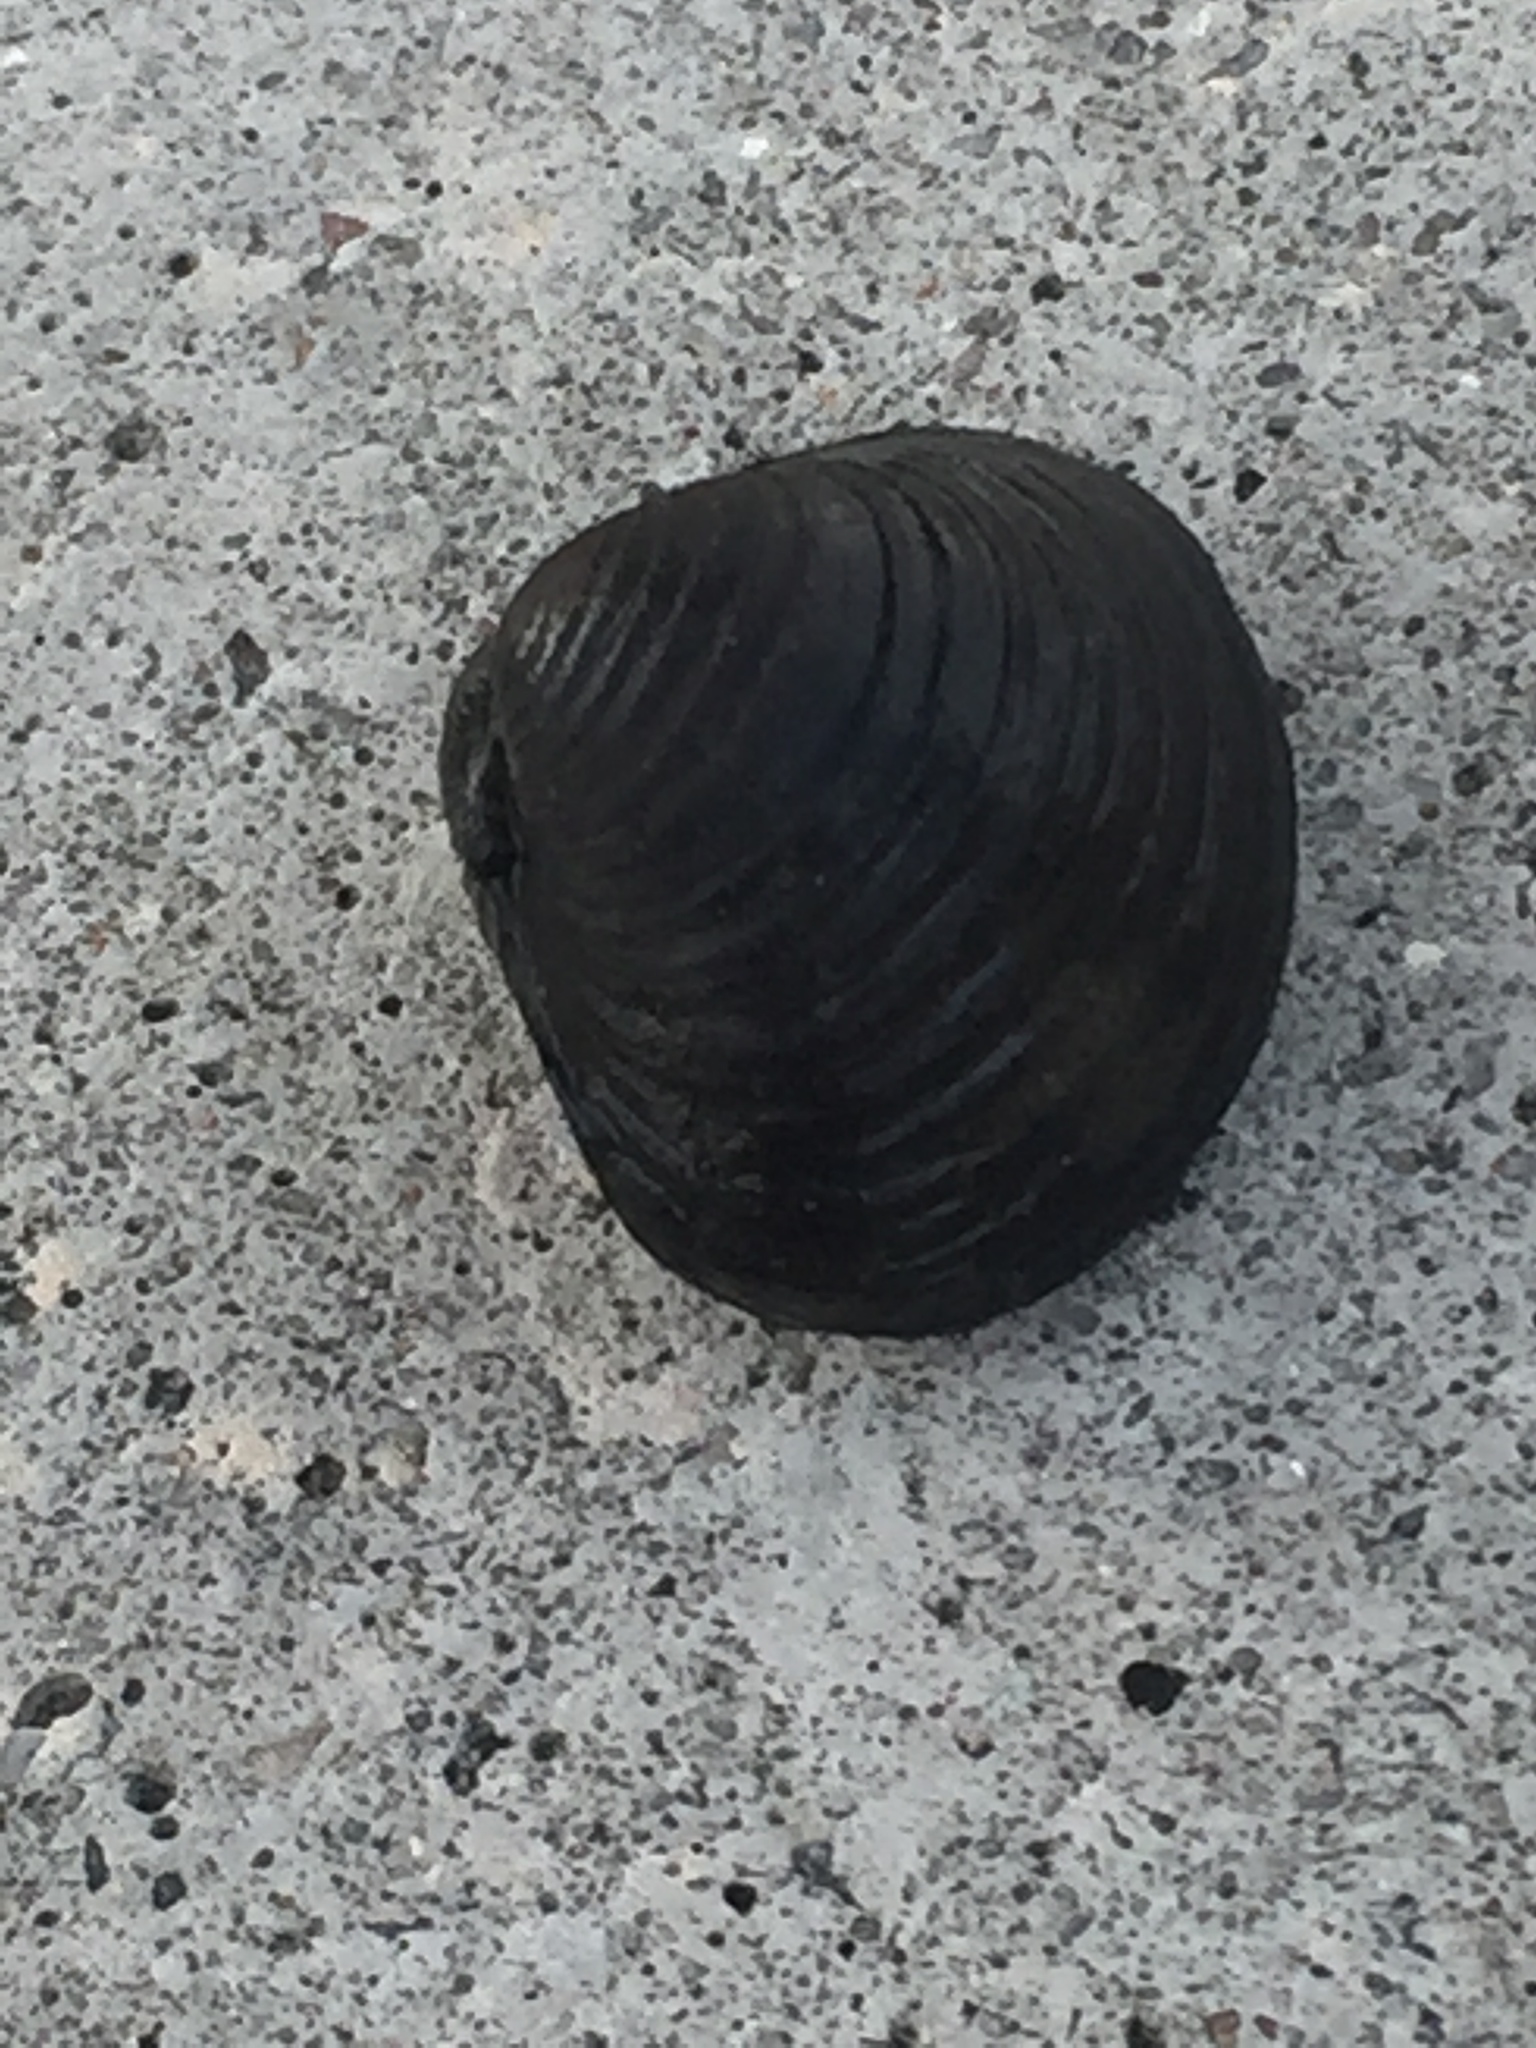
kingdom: Animalia
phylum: Mollusca
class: Bivalvia
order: Venerida
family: Cyrenidae
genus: Corbicula
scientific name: Corbicula fluminea
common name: Asian clam
